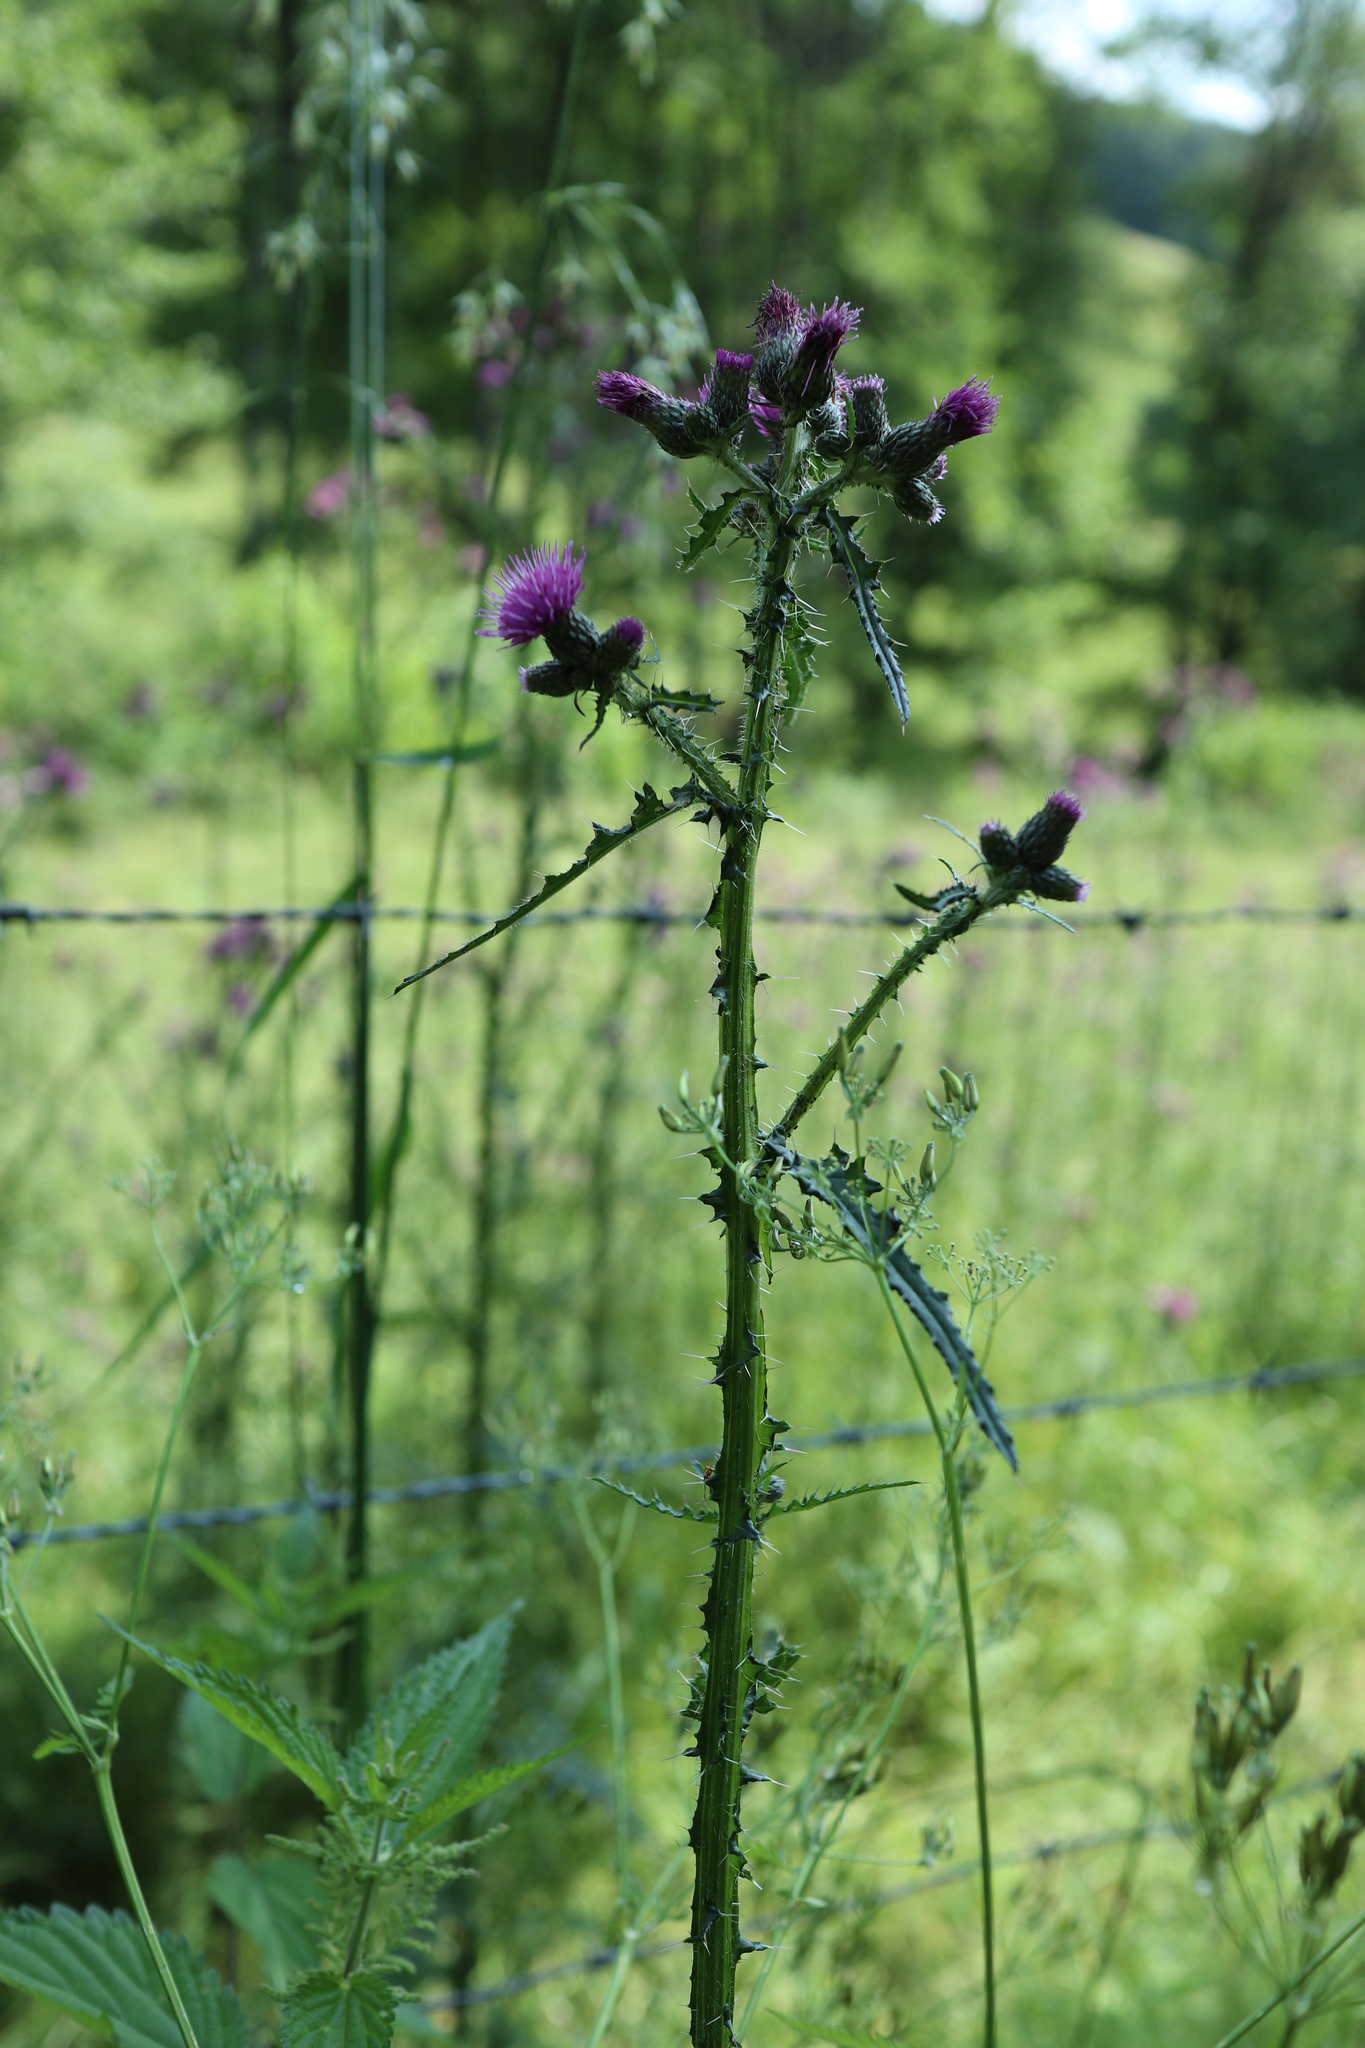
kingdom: Plantae
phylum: Tracheophyta
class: Magnoliopsida
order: Asterales
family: Asteraceae
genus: Cirsium
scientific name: Cirsium palustre
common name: Marsh thistle
